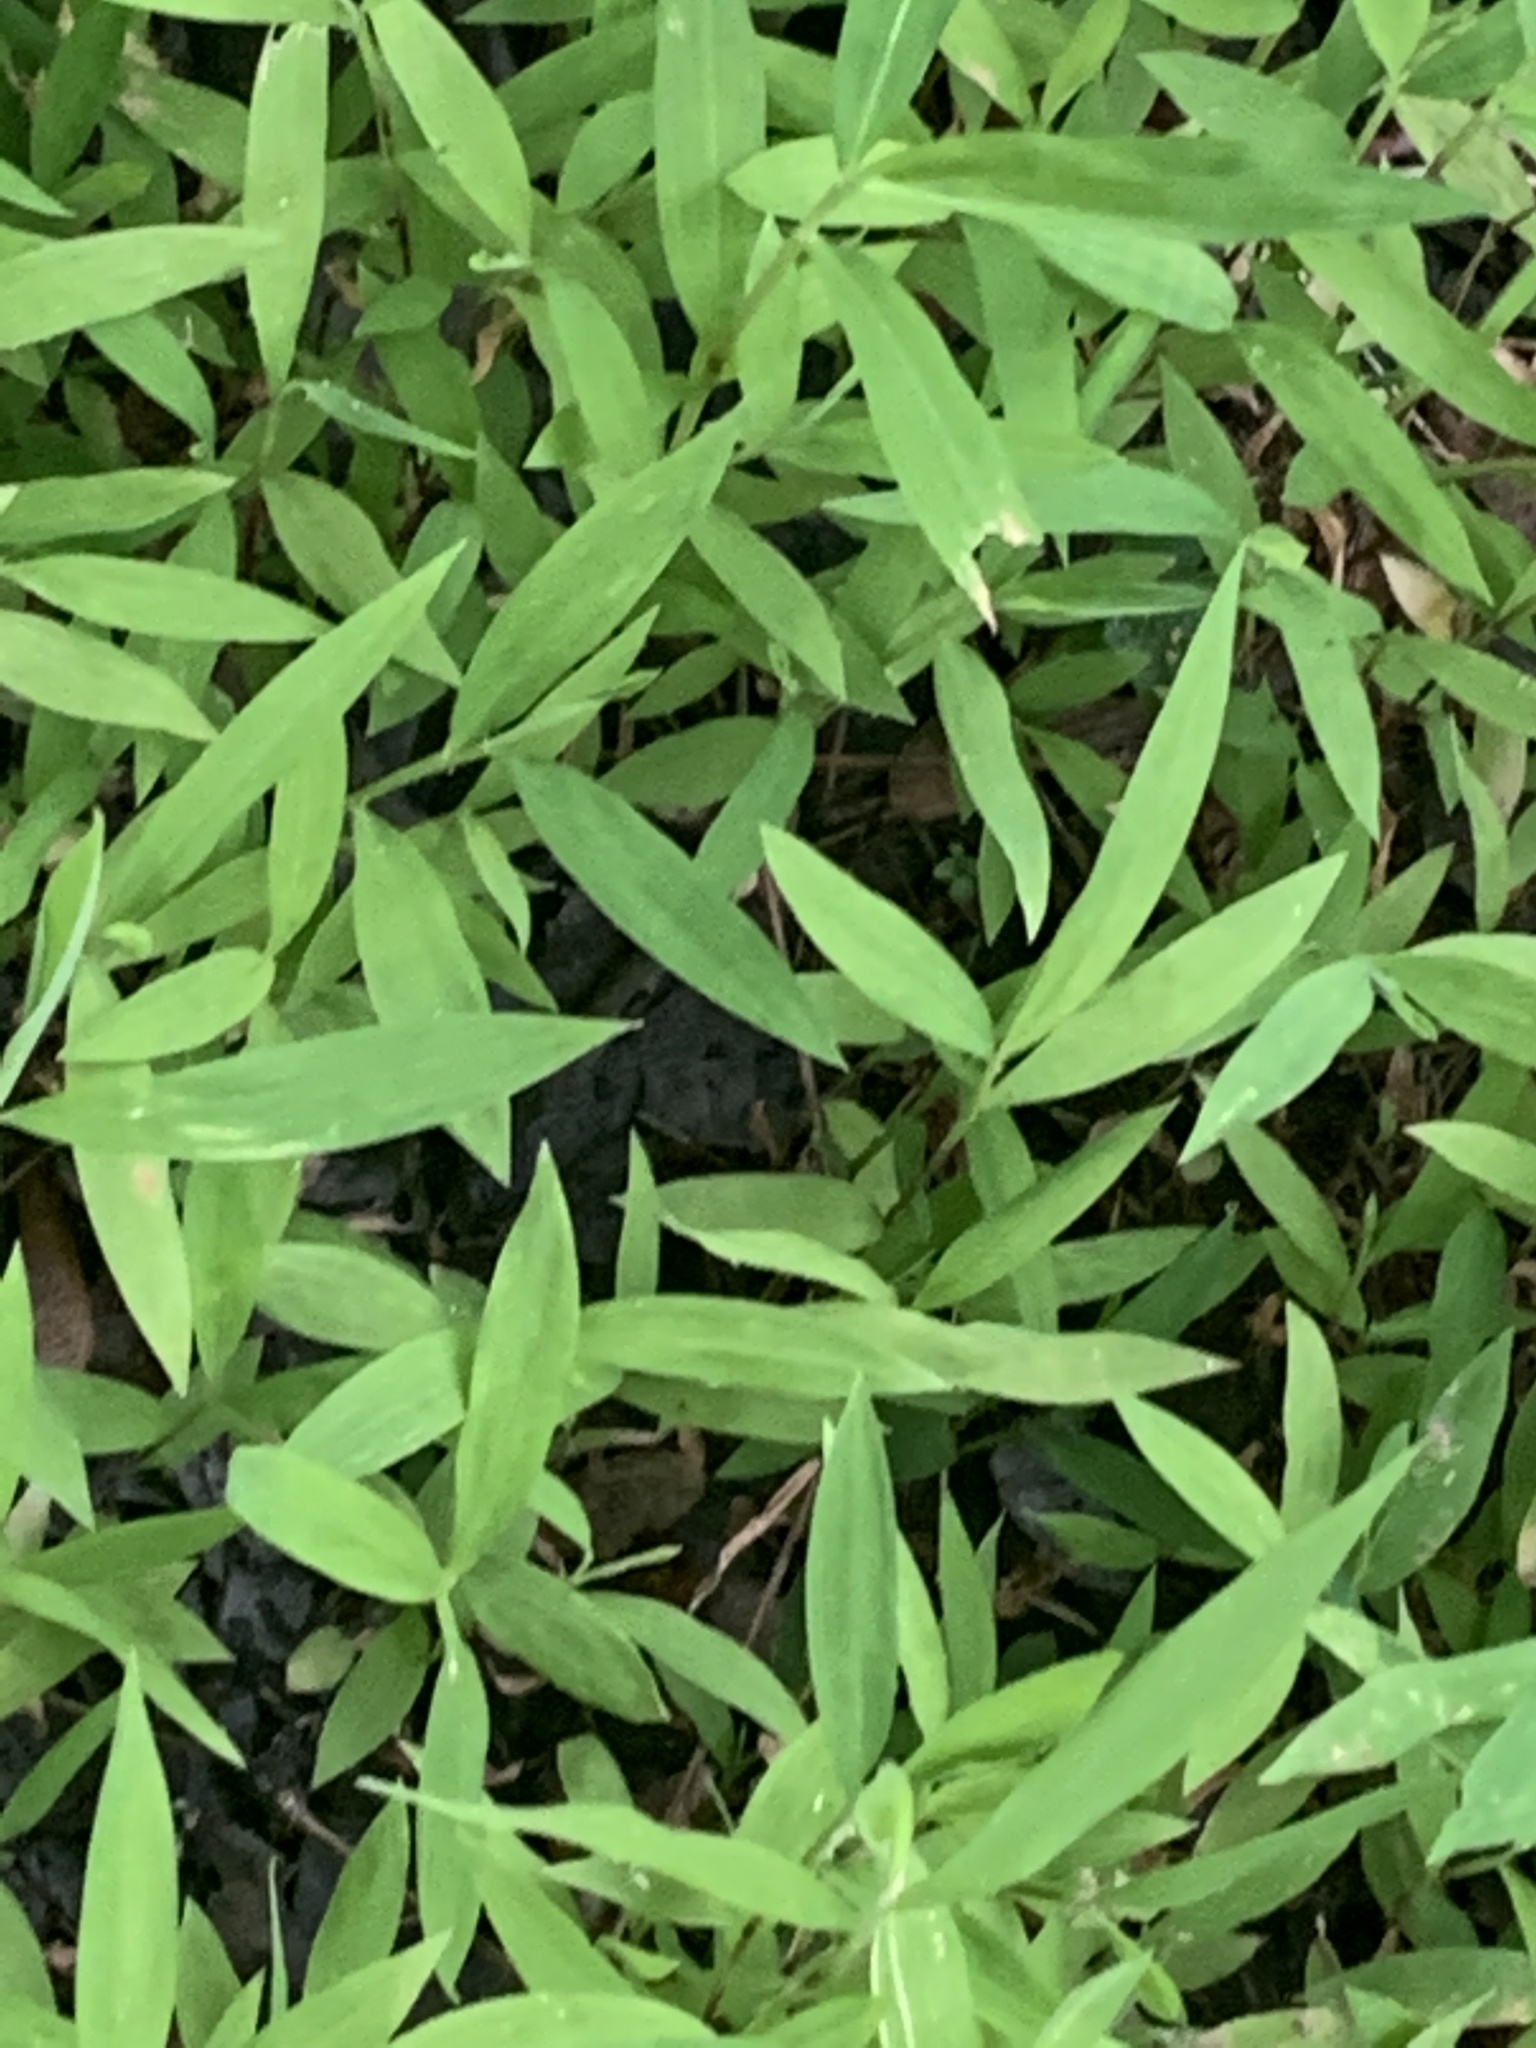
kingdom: Plantae
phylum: Tracheophyta
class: Liliopsida
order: Poales
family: Poaceae
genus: Microstegium
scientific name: Microstegium vimineum
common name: Japanese stiltgrass
